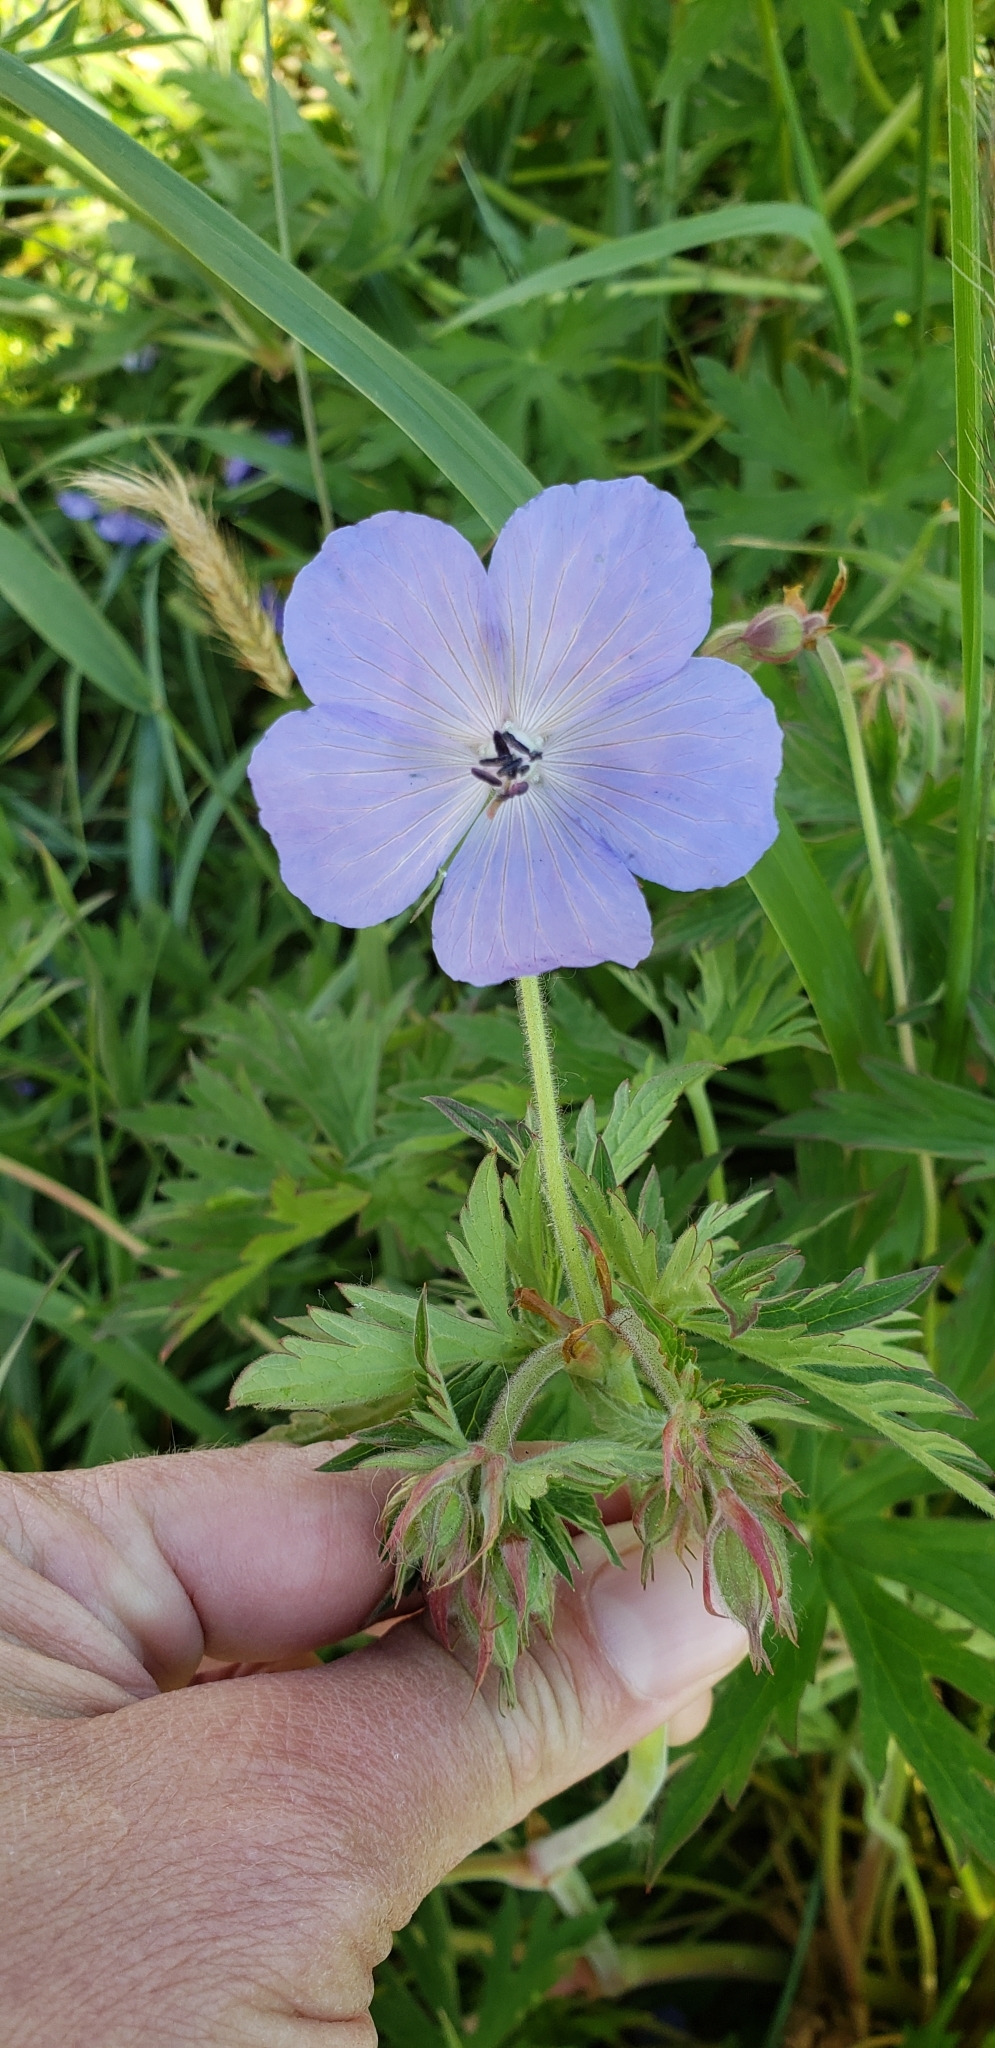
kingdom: Plantae
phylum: Tracheophyta
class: Magnoliopsida
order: Geraniales
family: Geraniaceae
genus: Geranium
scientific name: Geranium erianthum
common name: Northern crane's-bill
